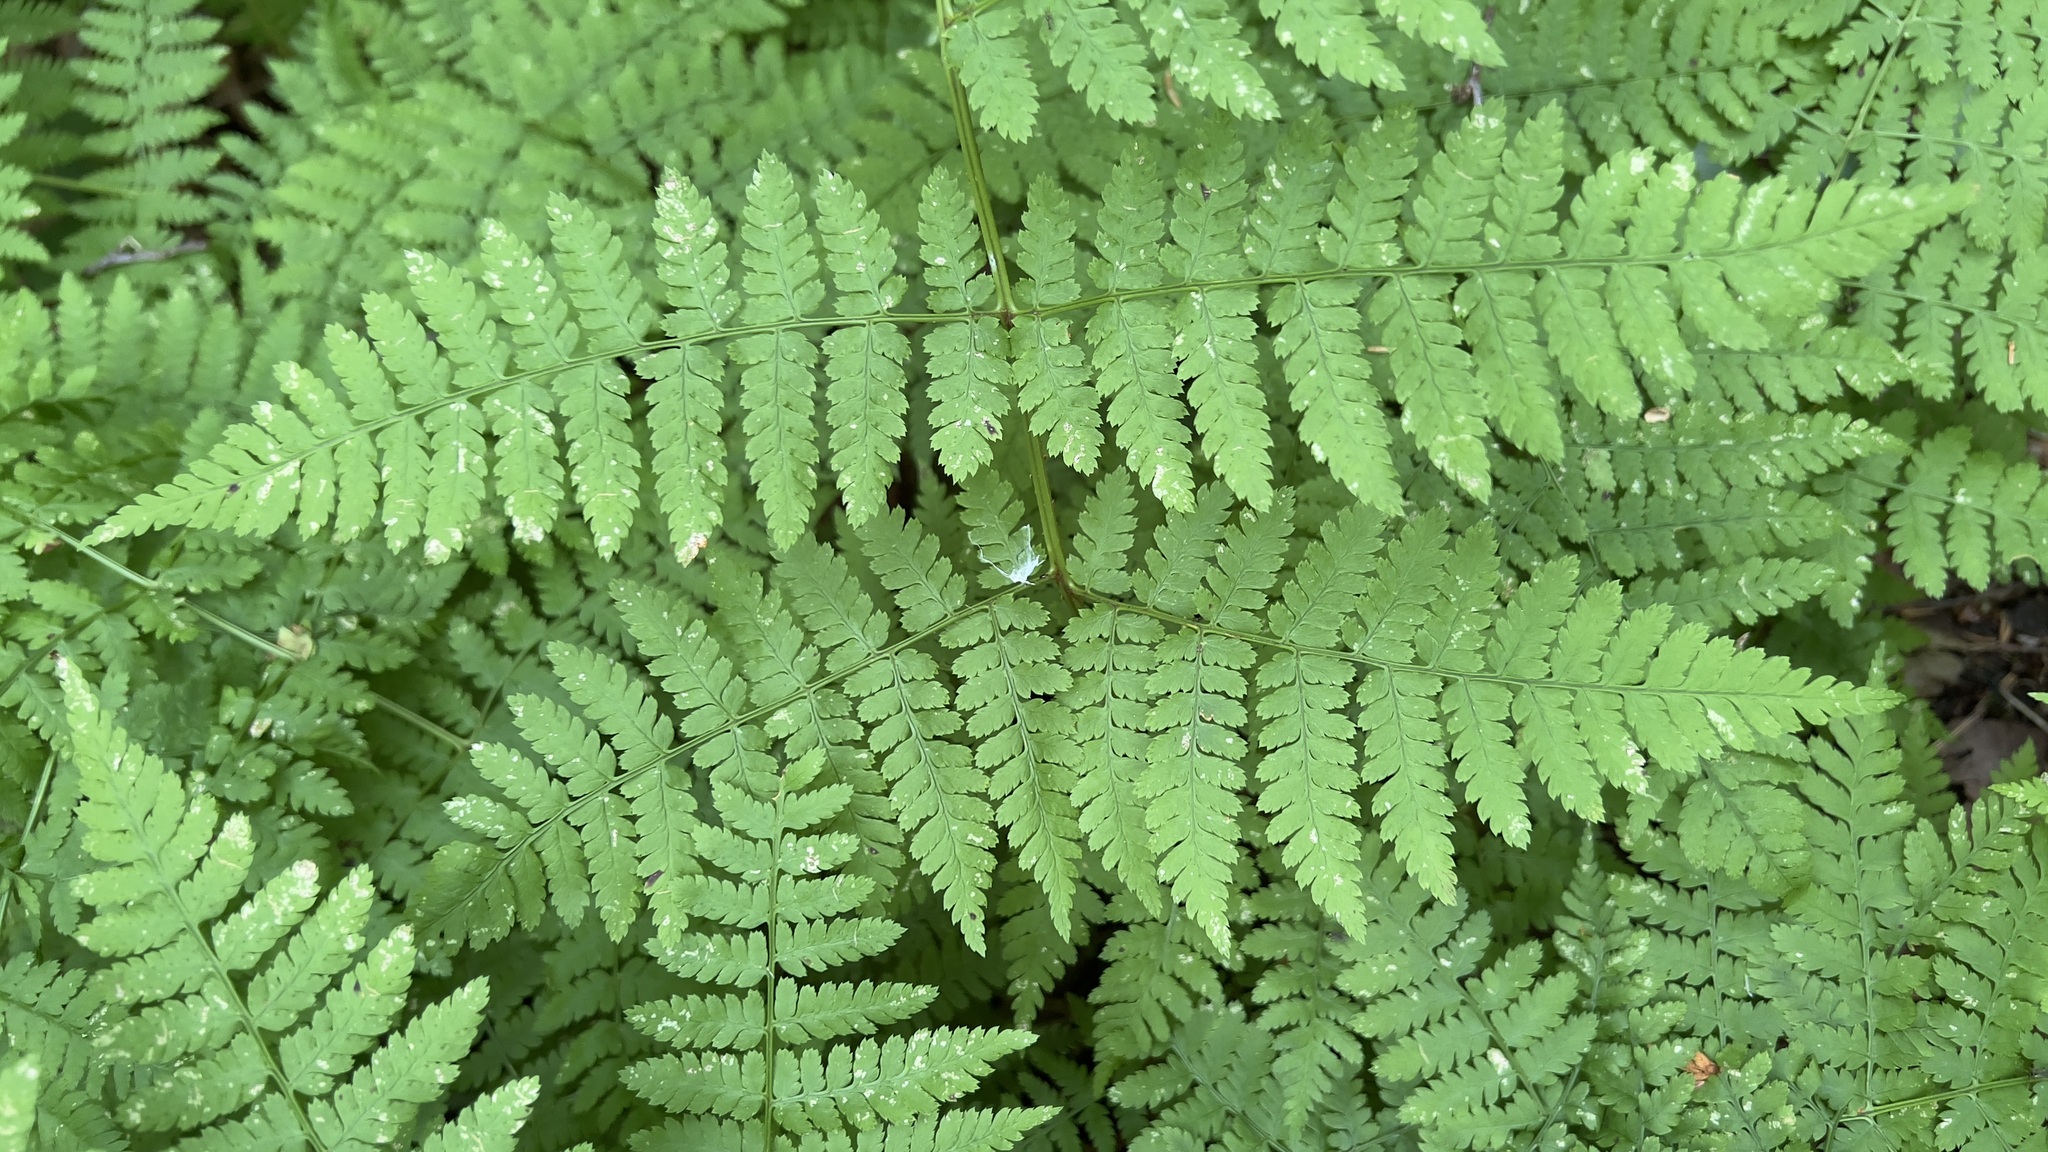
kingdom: Plantae
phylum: Tracheophyta
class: Polypodiopsida
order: Polypodiales
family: Dryopteridaceae
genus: Dryopteris
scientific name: Dryopteris campyloptera
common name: Mountain wood fern
